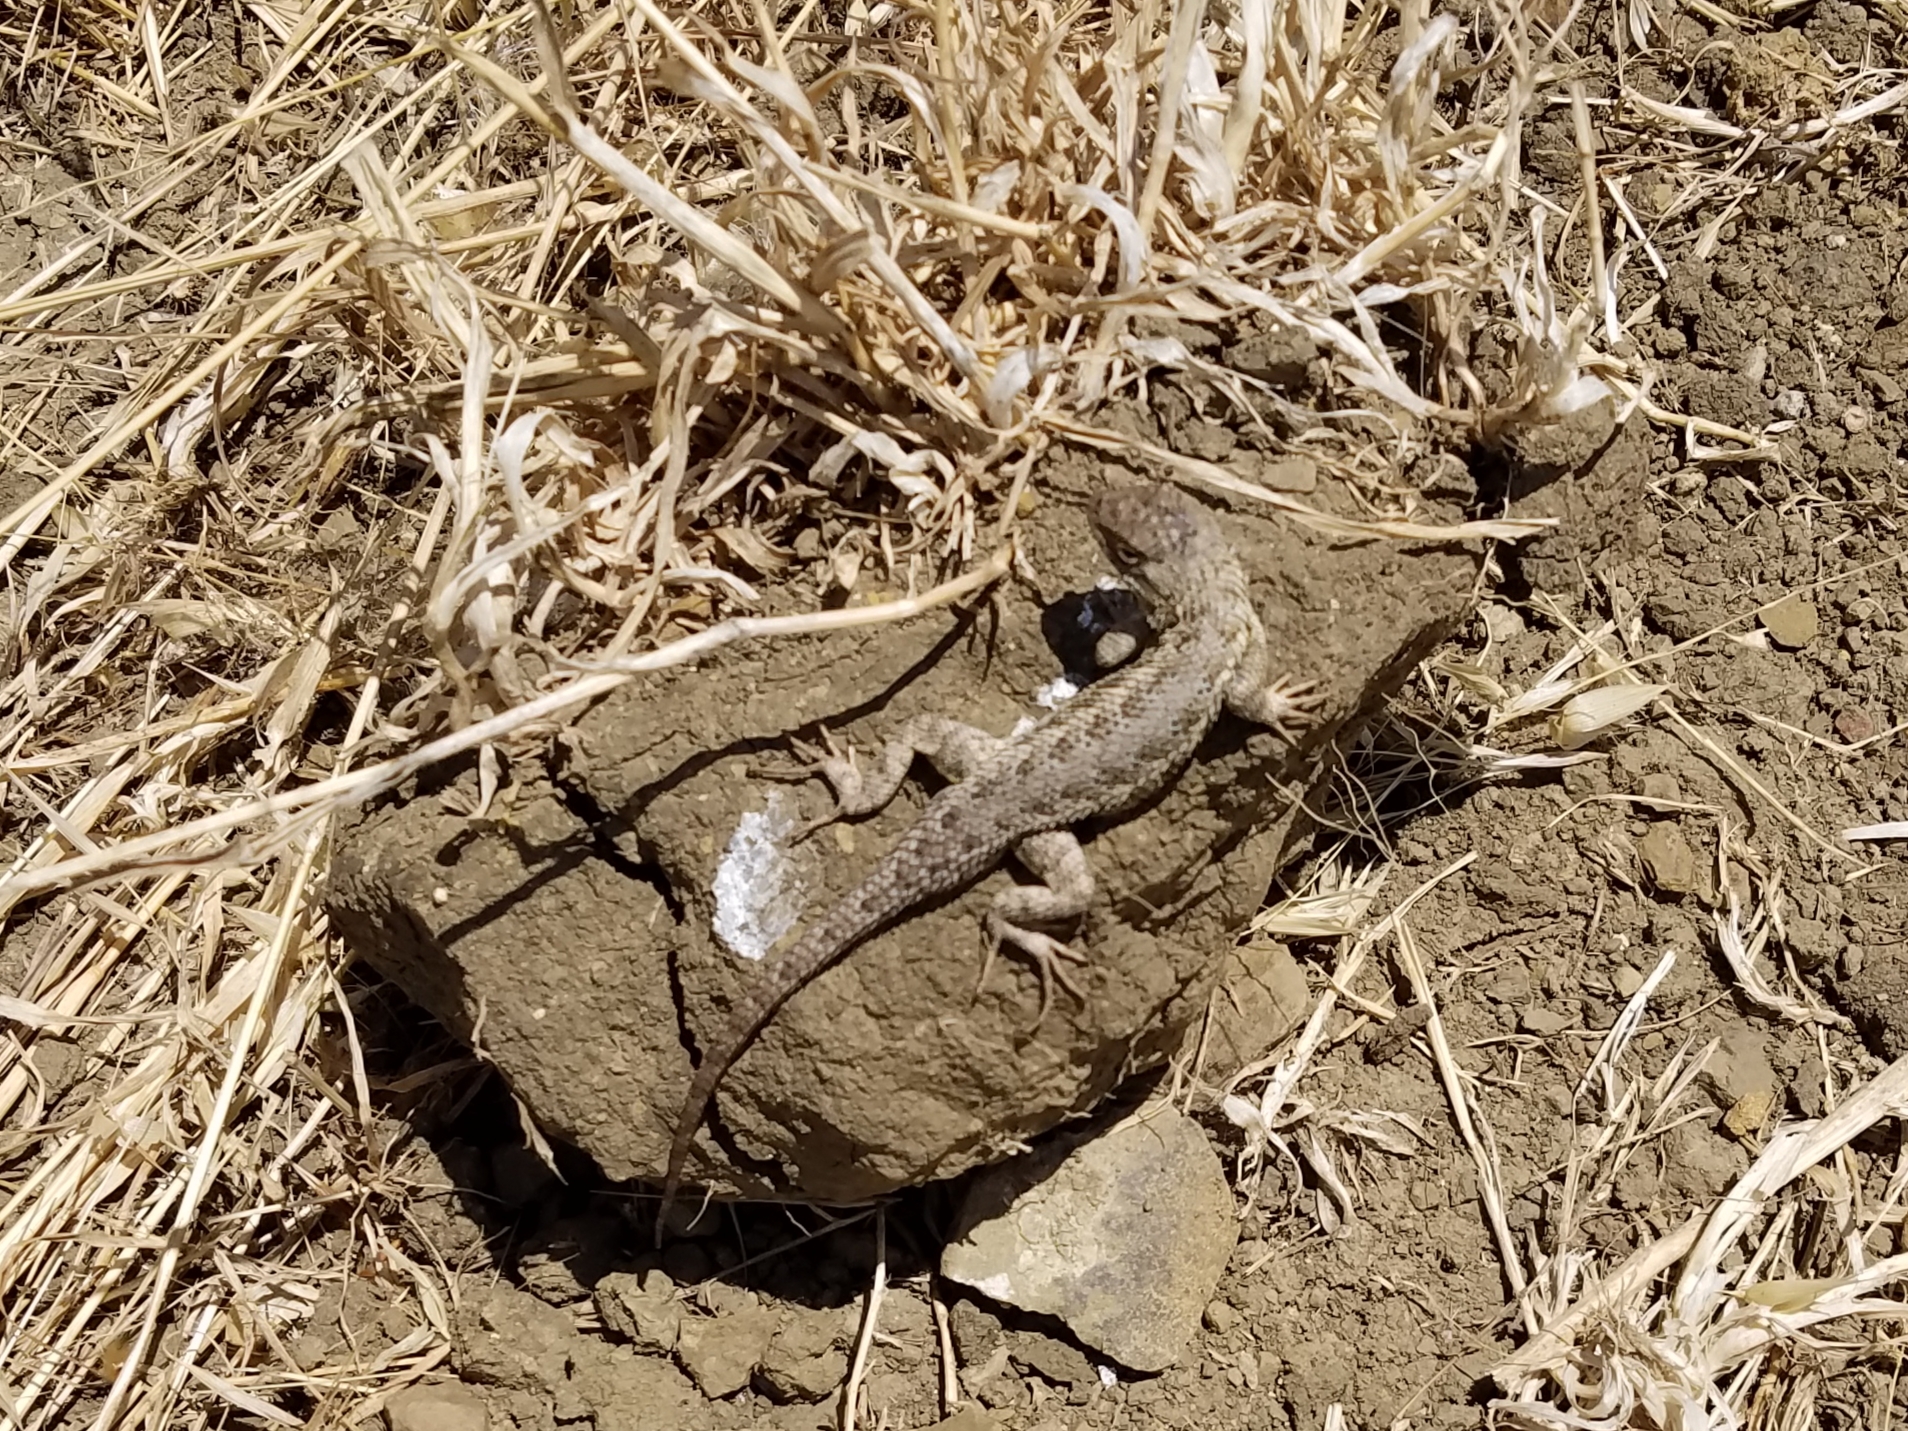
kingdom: Animalia
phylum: Chordata
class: Squamata
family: Phrynosomatidae
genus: Sceloporus
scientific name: Sceloporus occidentalis
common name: Western fence lizard
